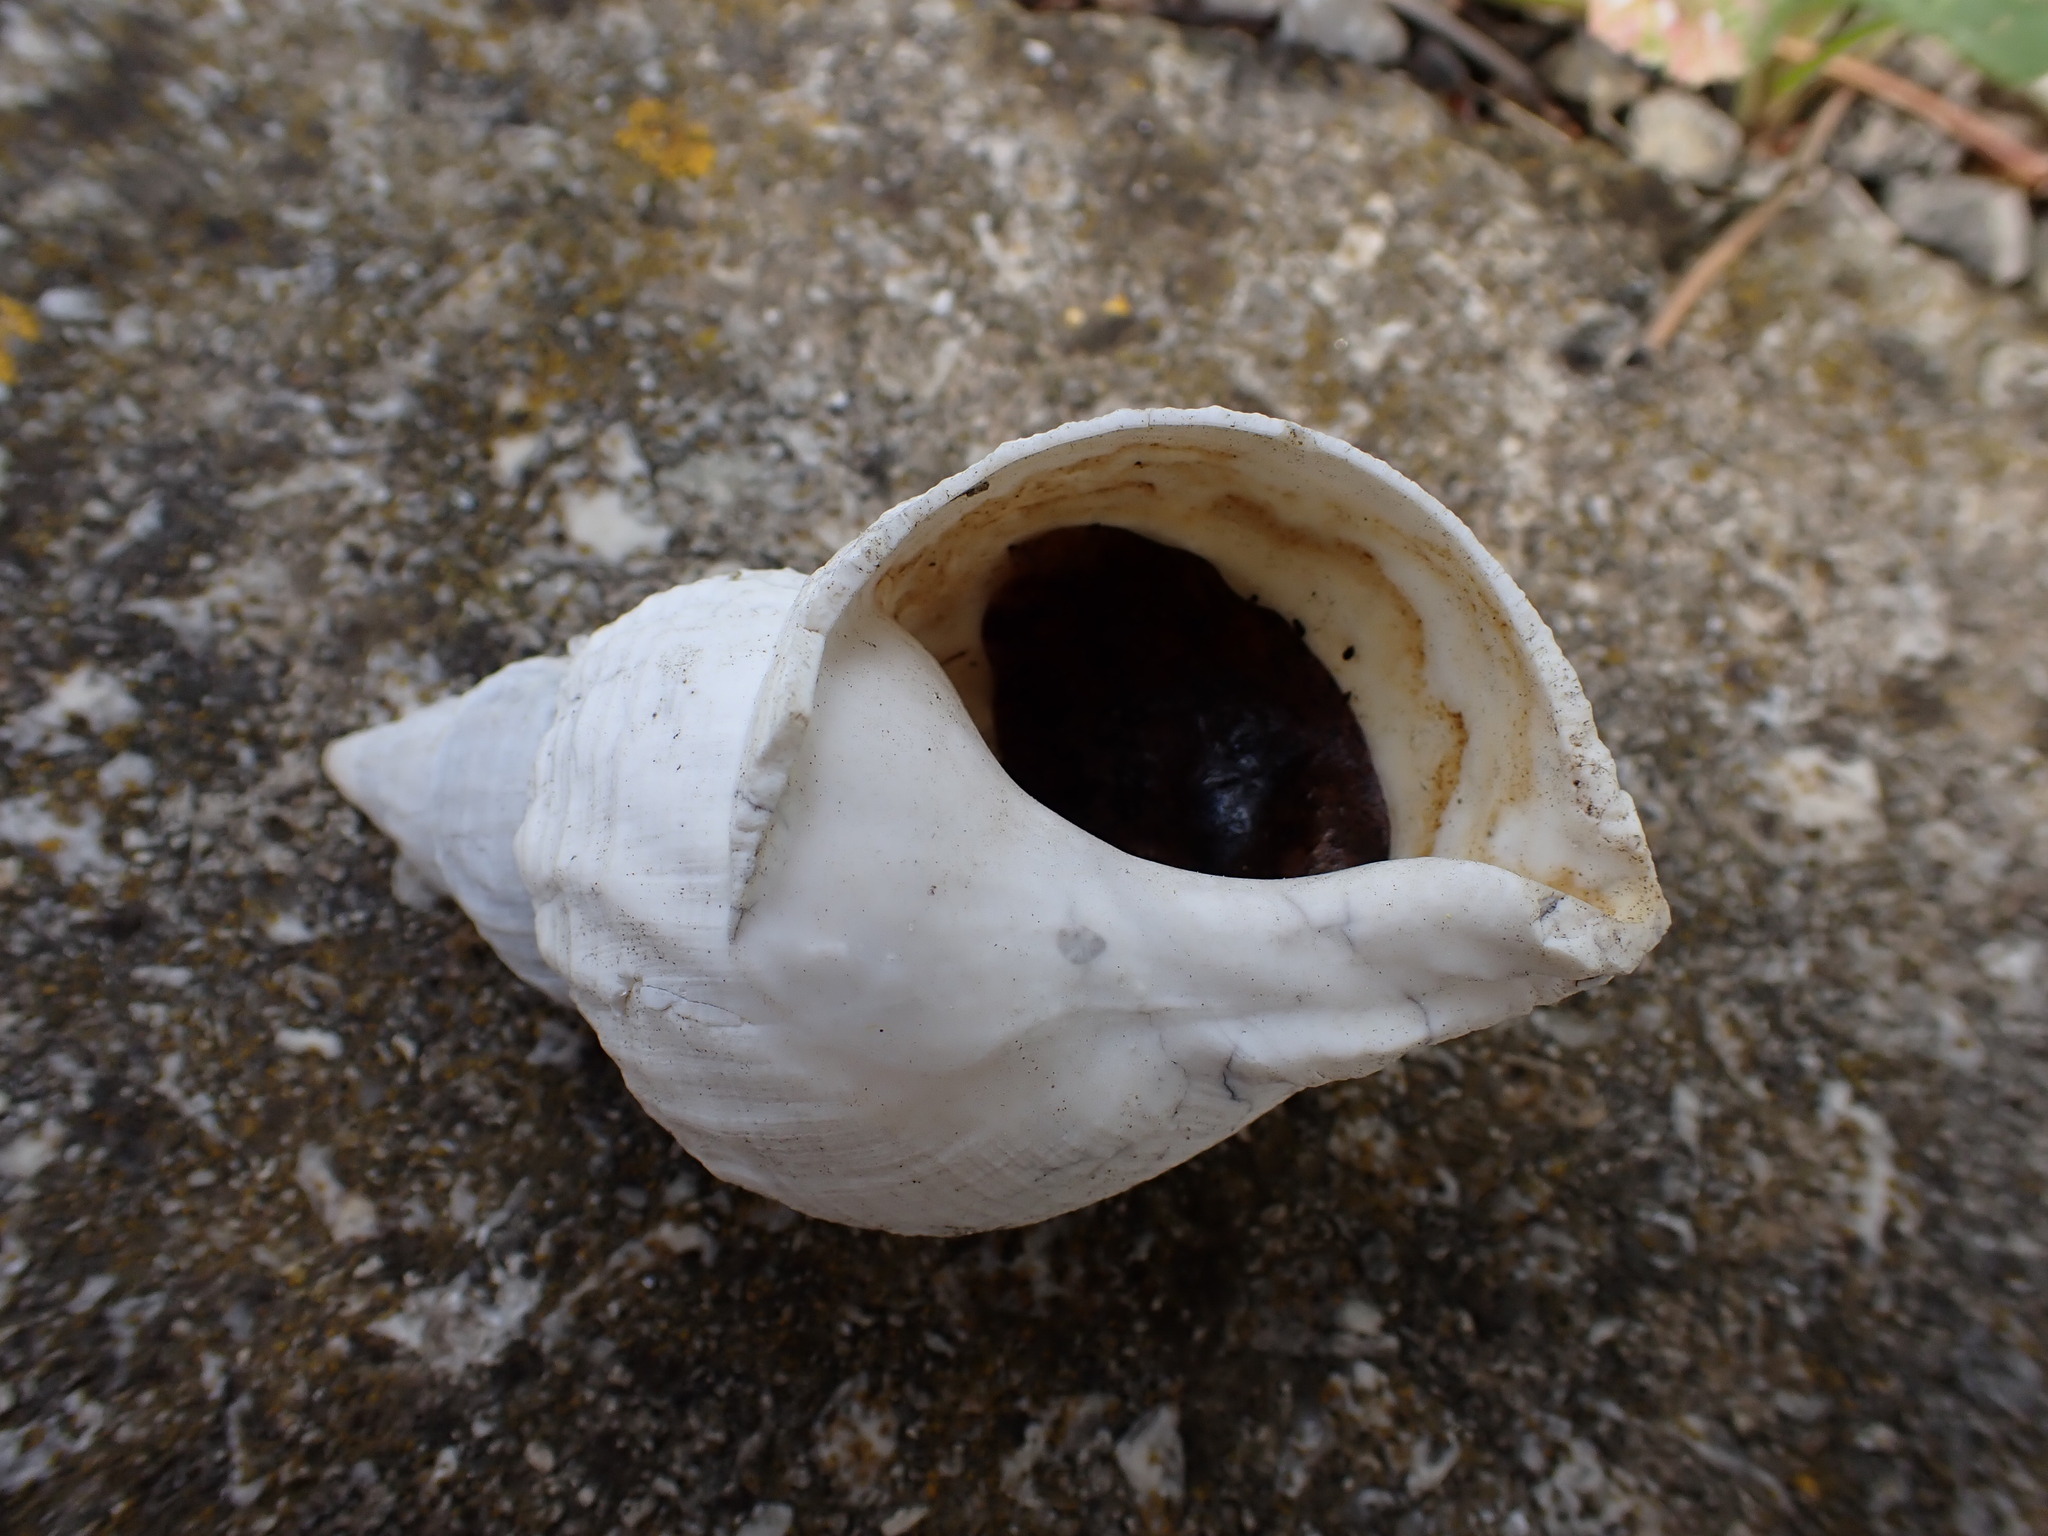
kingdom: Animalia
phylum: Mollusca
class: Gastropoda
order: Neogastropoda
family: Buccinidae
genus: Buccinum
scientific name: Buccinum undatum
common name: Common whelk
